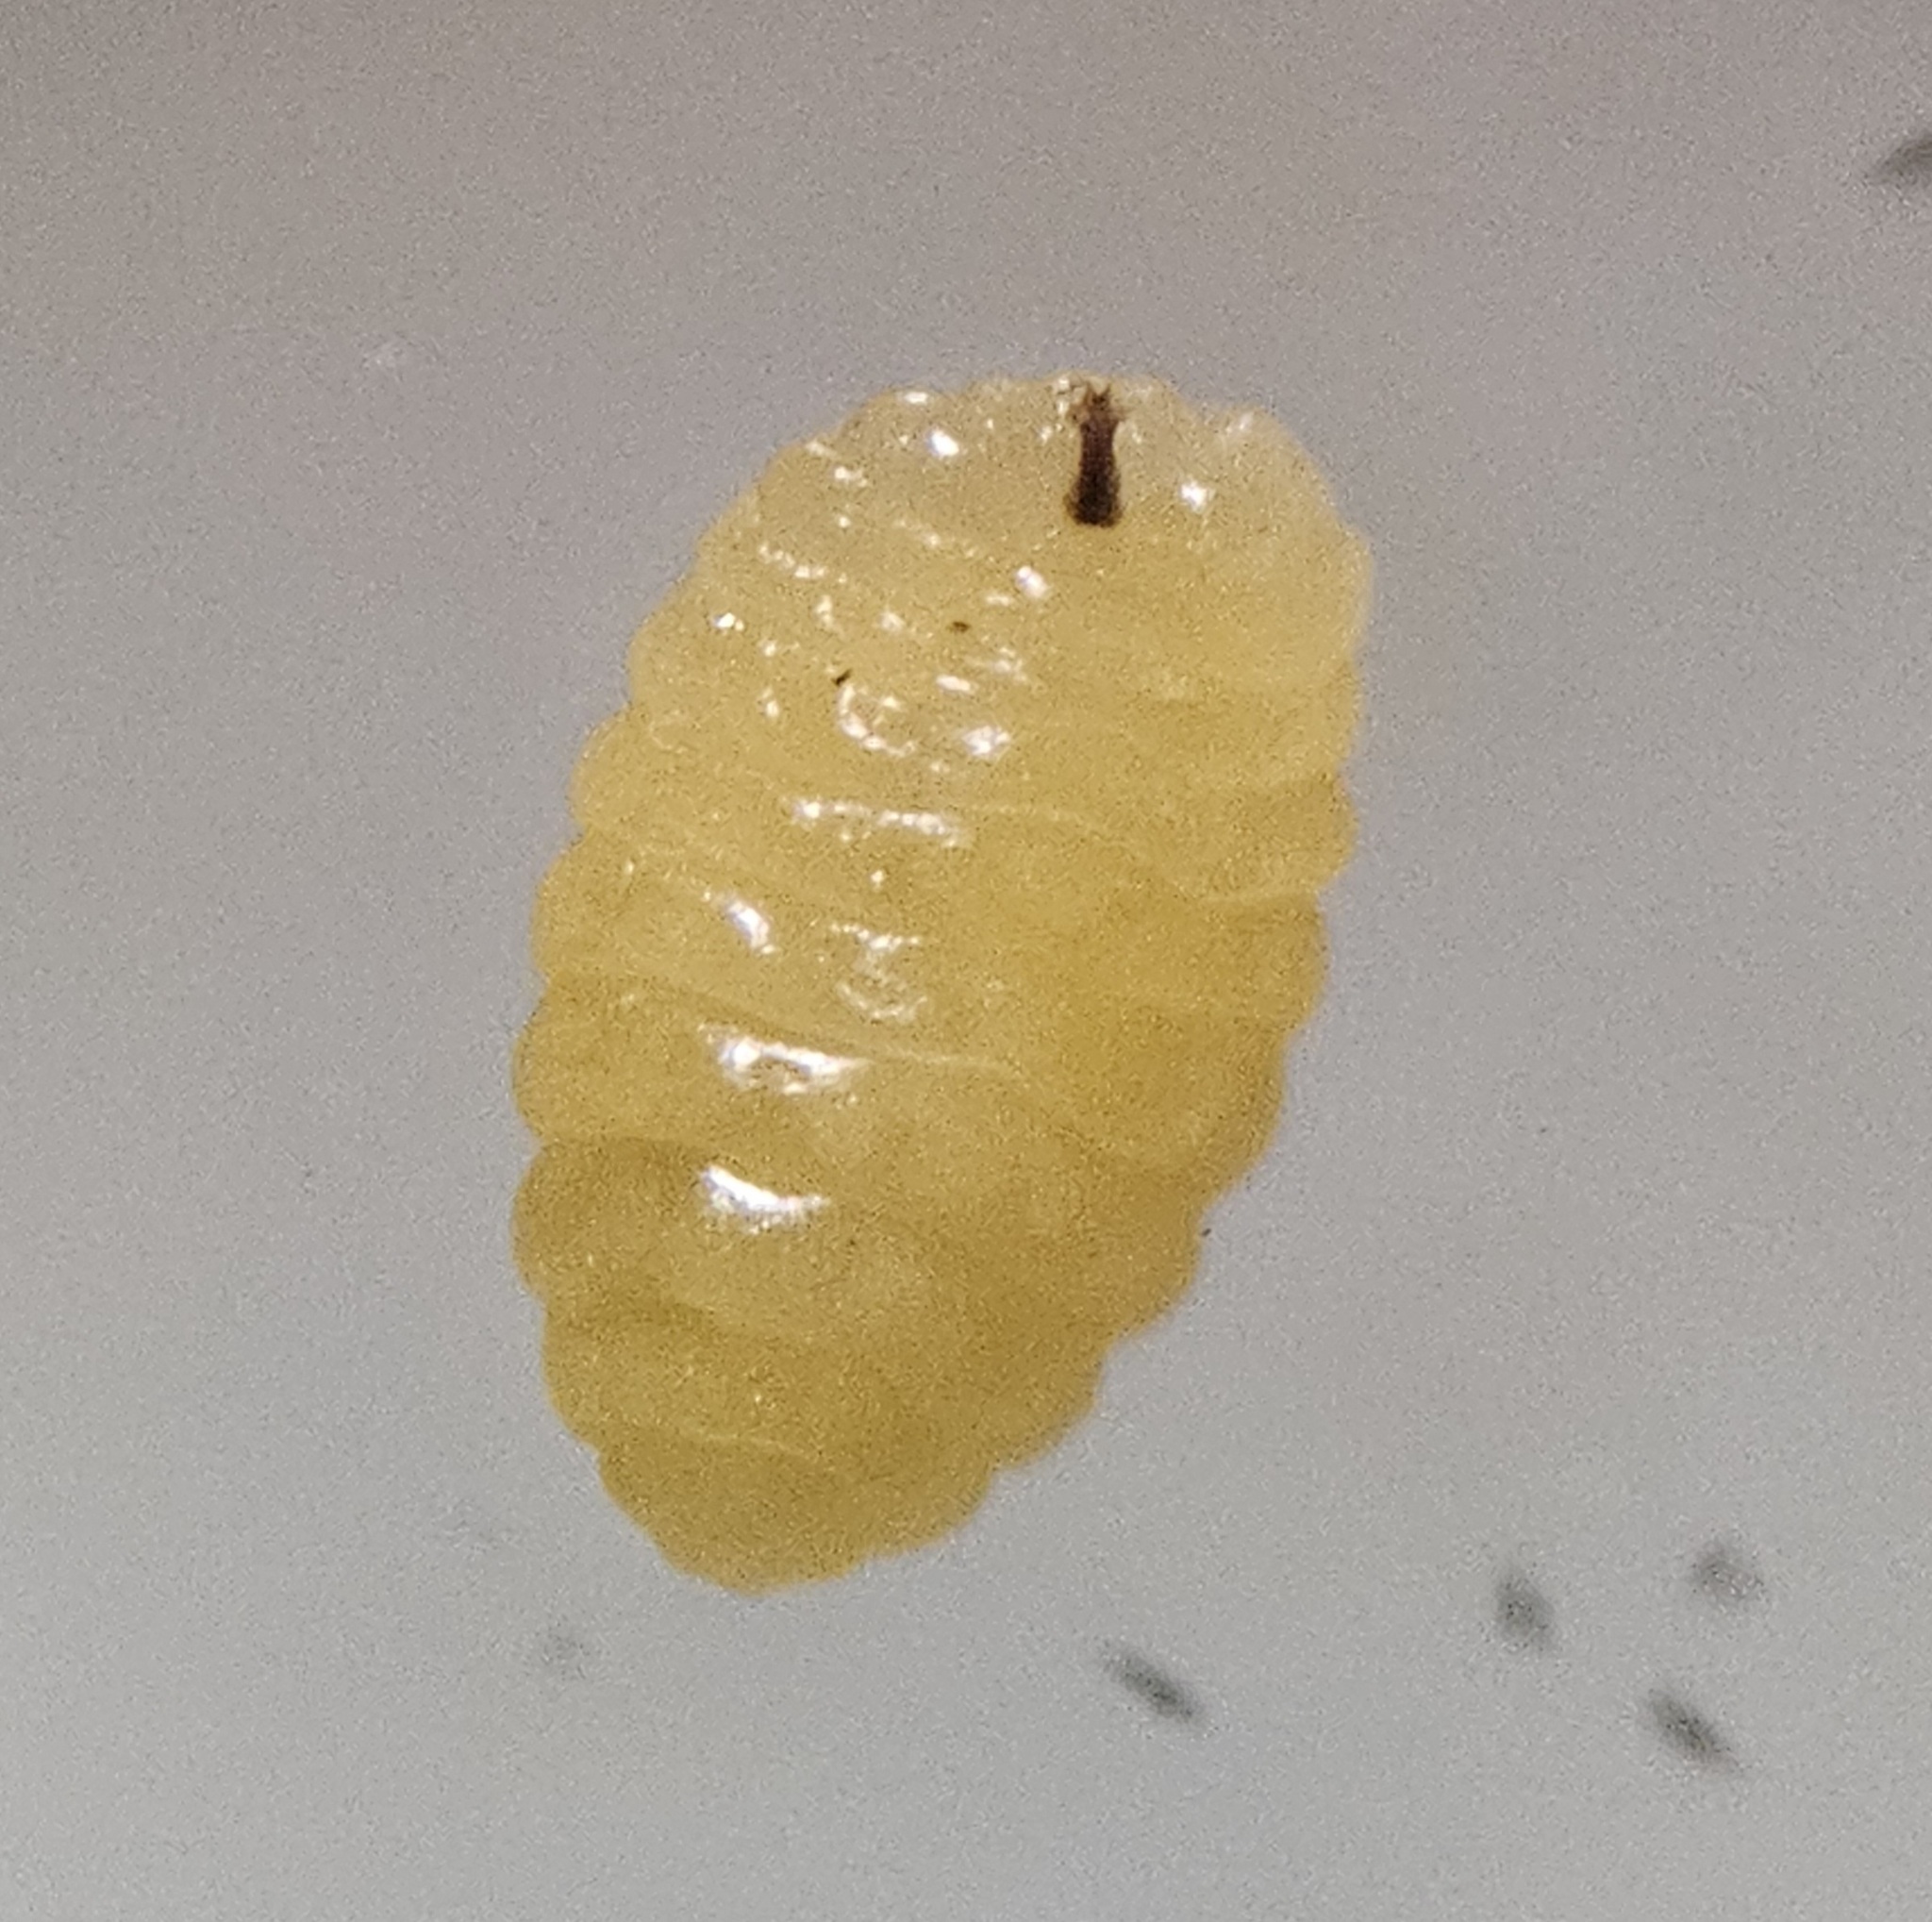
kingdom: Animalia
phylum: Arthropoda
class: Insecta
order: Diptera
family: Cecidomyiidae
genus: Asteromyia
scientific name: Asteromyia euthamiae
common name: Euthamia leaf gall midge
